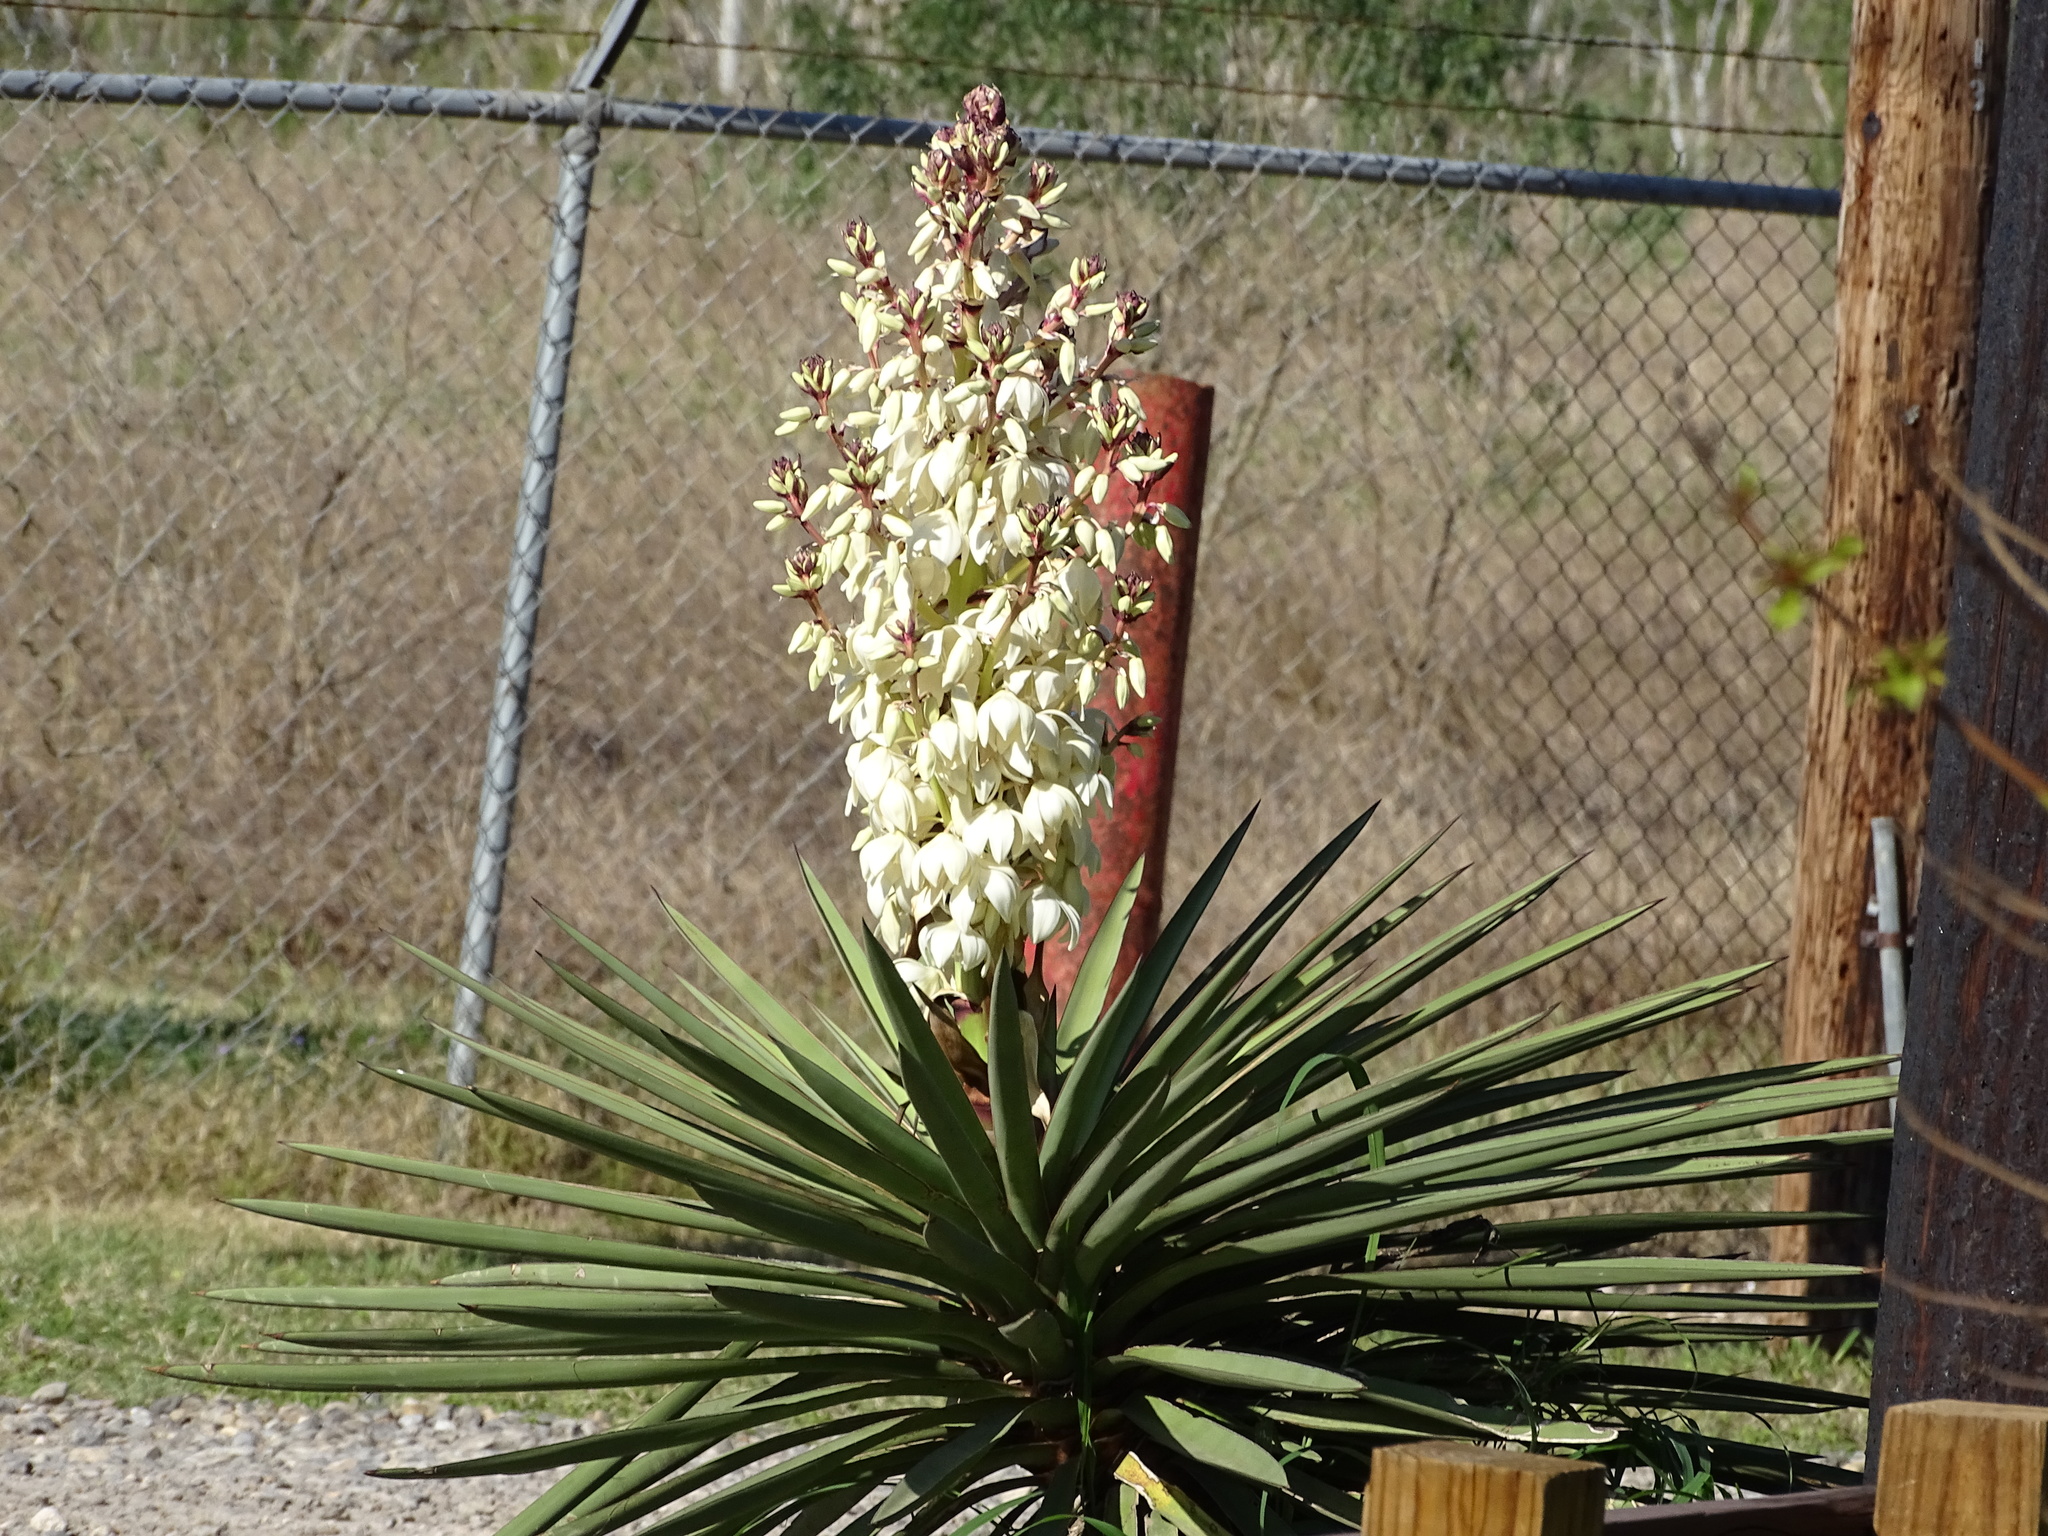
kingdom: Plantae
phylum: Tracheophyta
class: Liliopsida
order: Asparagales
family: Asparagaceae
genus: Yucca
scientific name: Yucca treculiana
